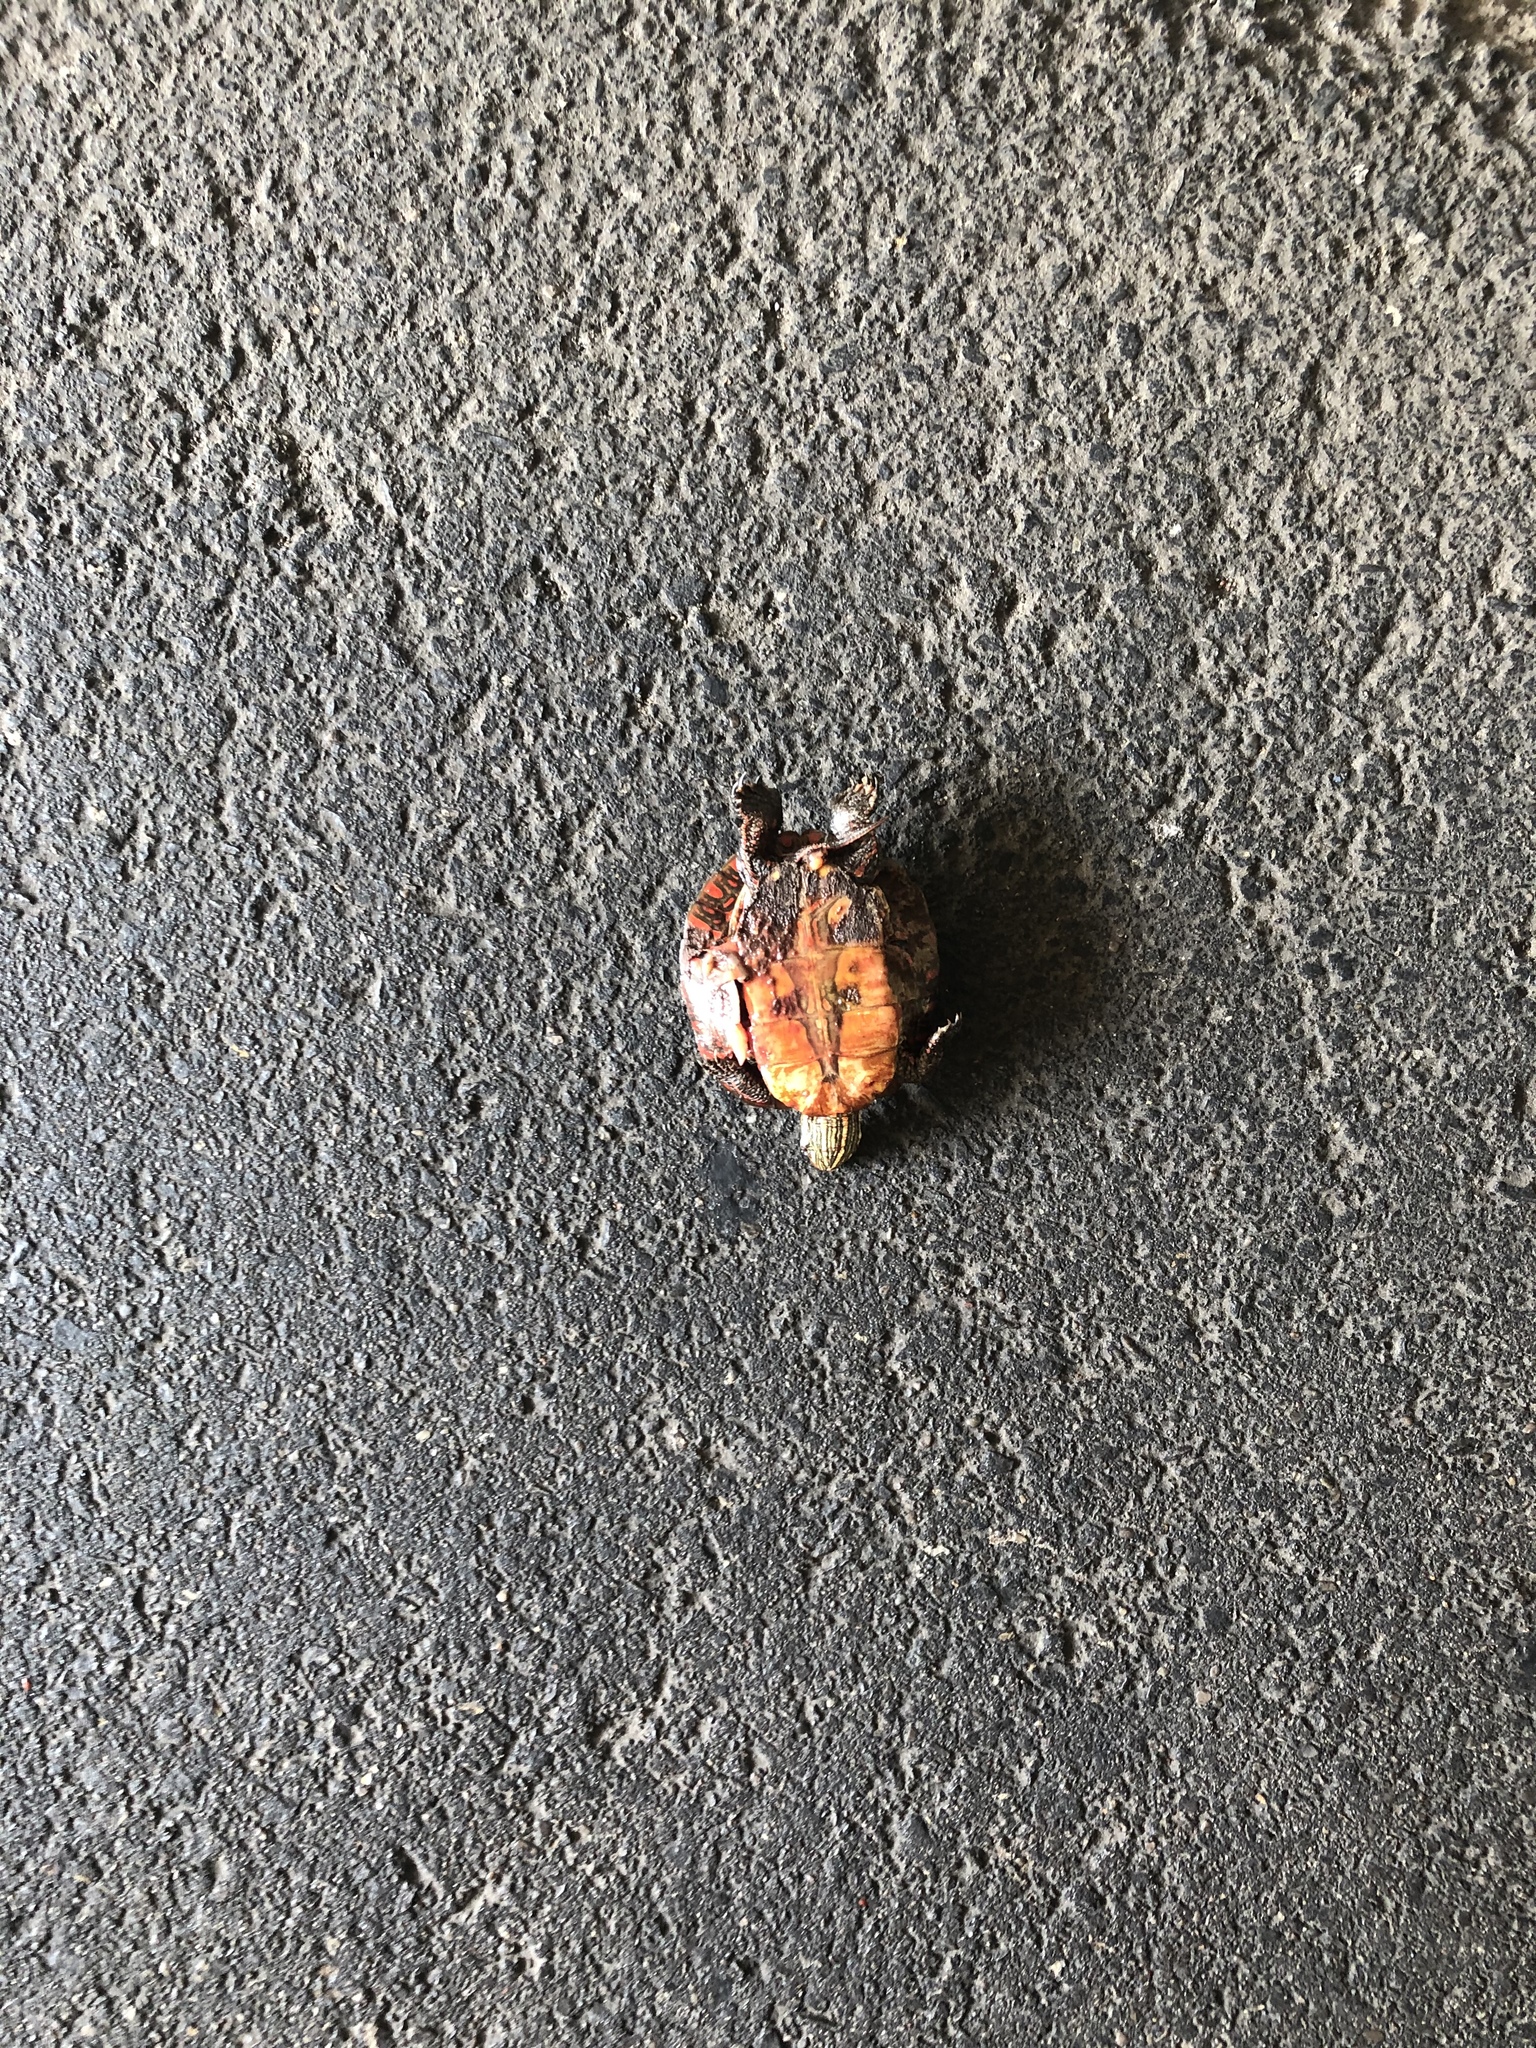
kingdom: Animalia
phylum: Chordata
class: Testudines
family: Emydidae
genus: Chrysemys
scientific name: Chrysemys picta
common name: Painted turtle
